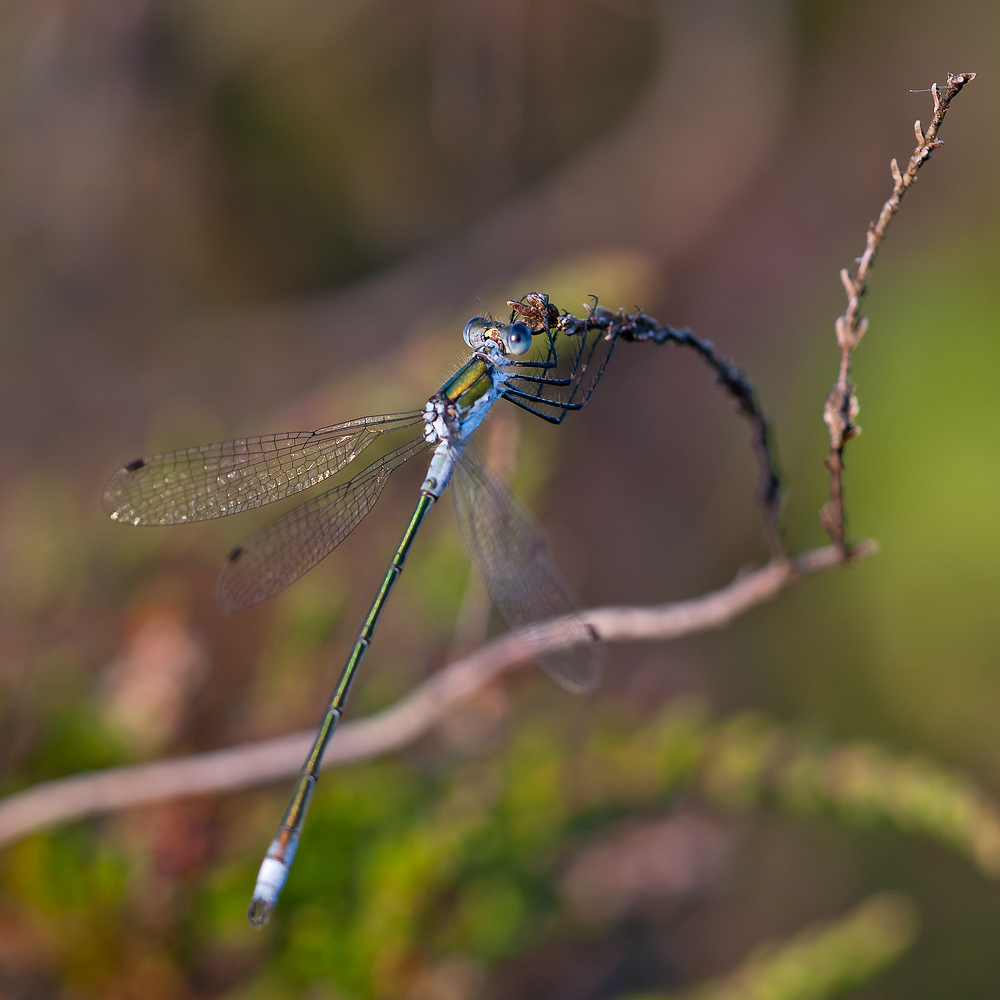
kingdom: Animalia
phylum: Arthropoda
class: Insecta
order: Odonata
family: Lestidae
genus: Lestes
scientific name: Lestes sponsa
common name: Common spreadwing
